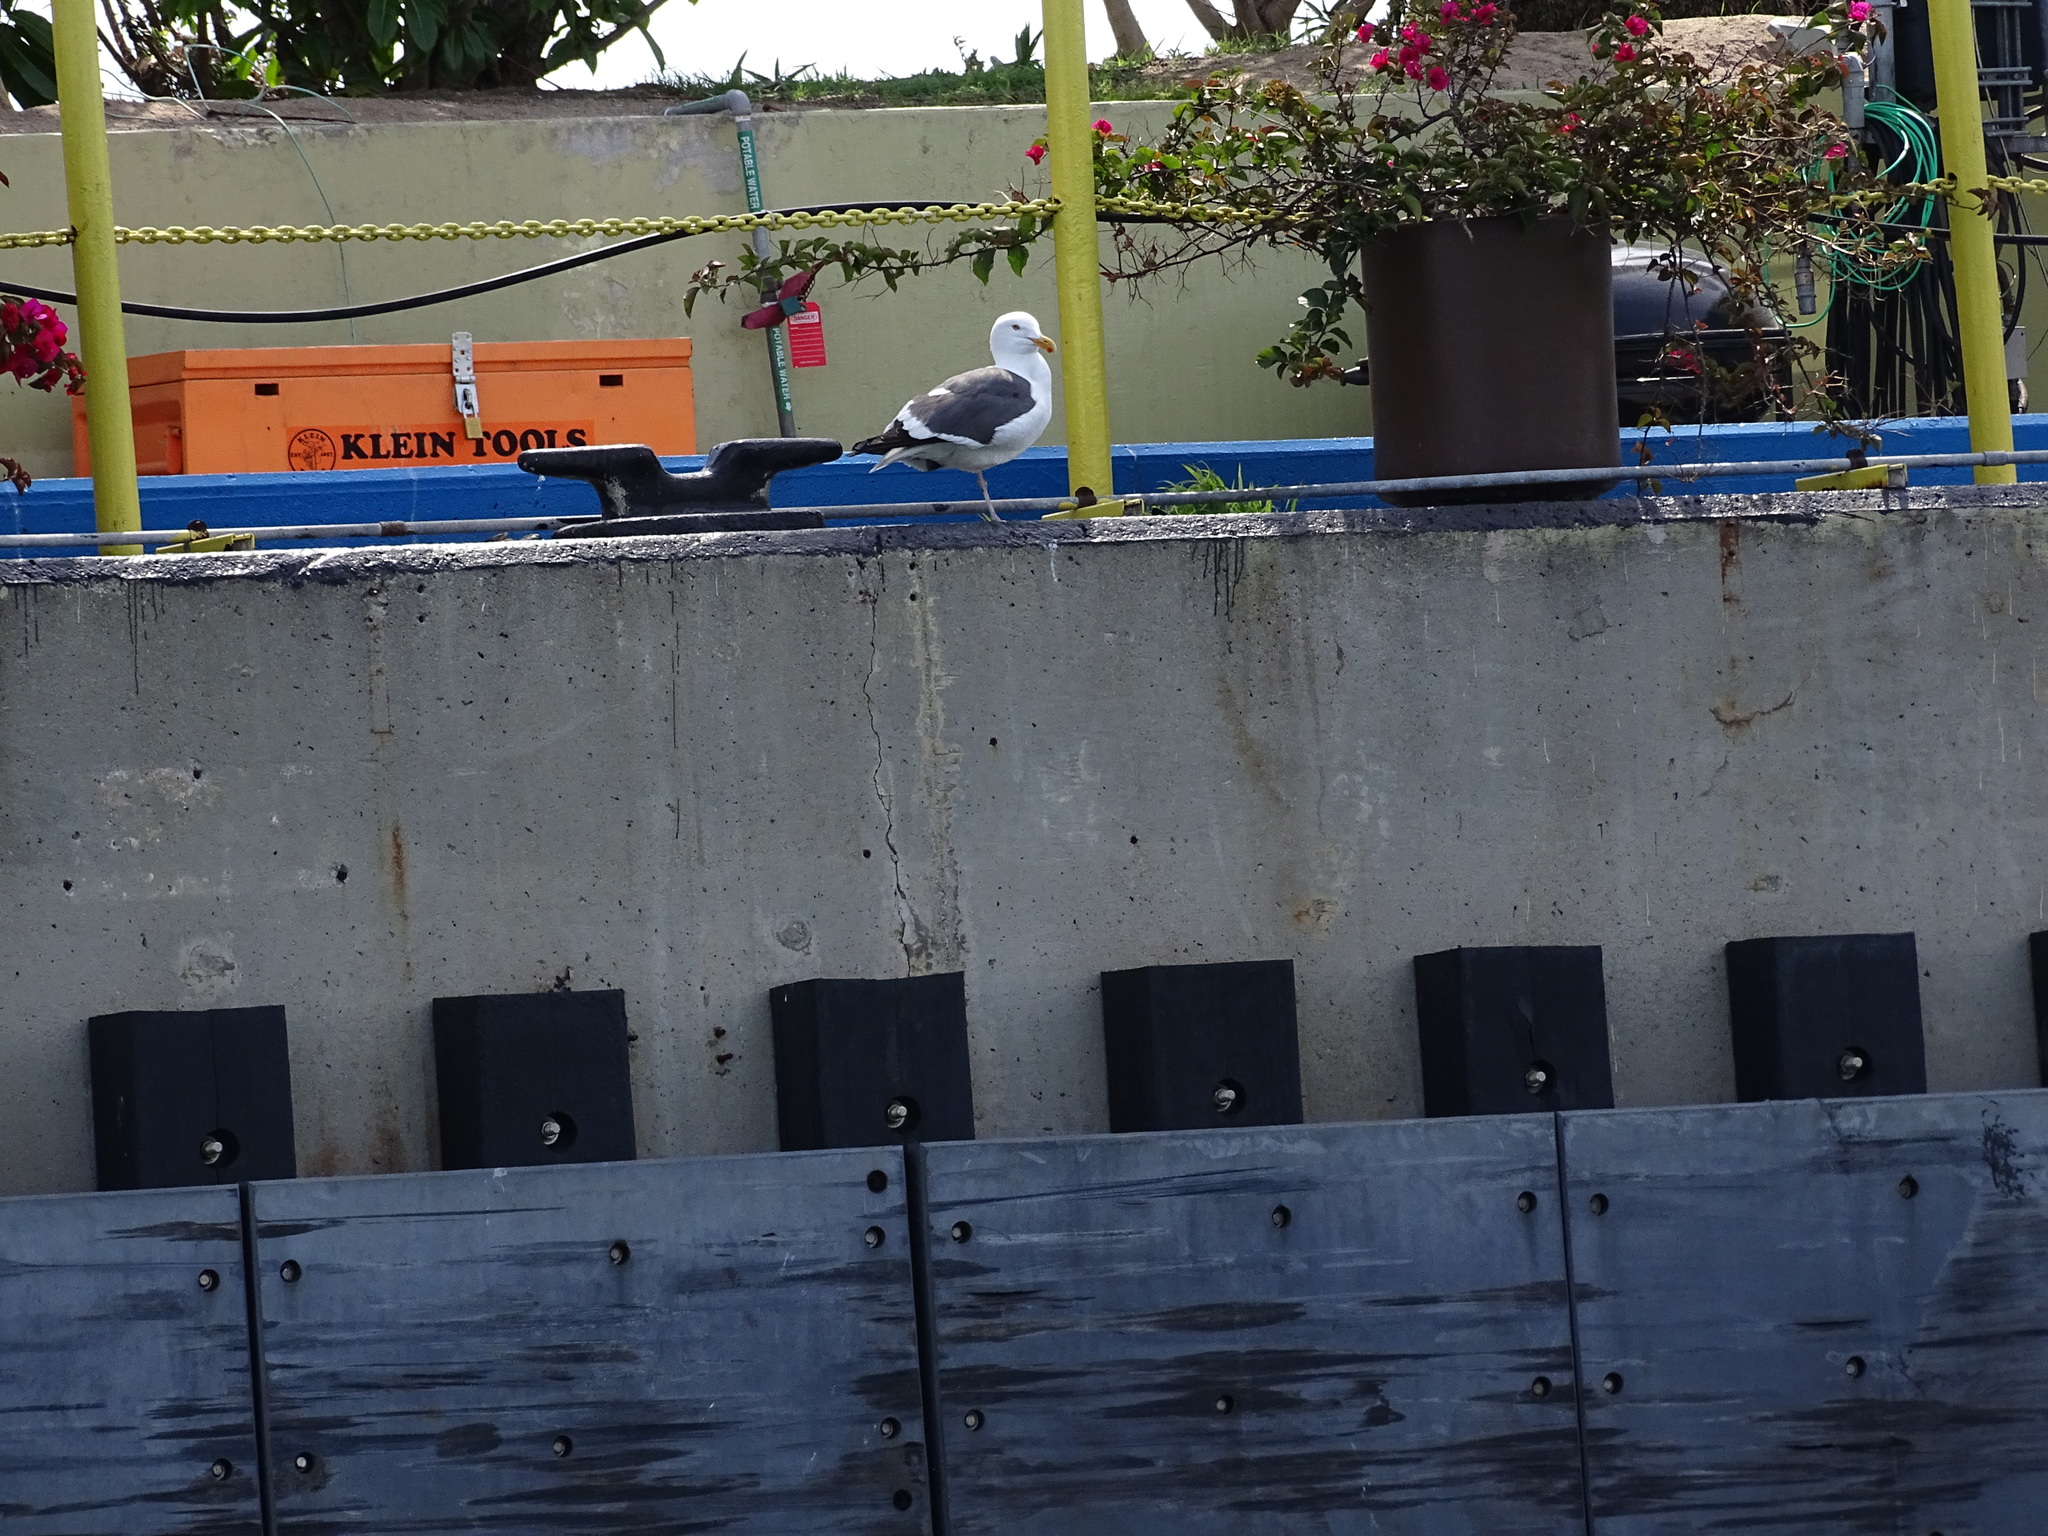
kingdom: Animalia
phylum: Chordata
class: Aves
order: Charadriiformes
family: Laridae
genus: Larus
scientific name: Larus occidentalis
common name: Western gull
